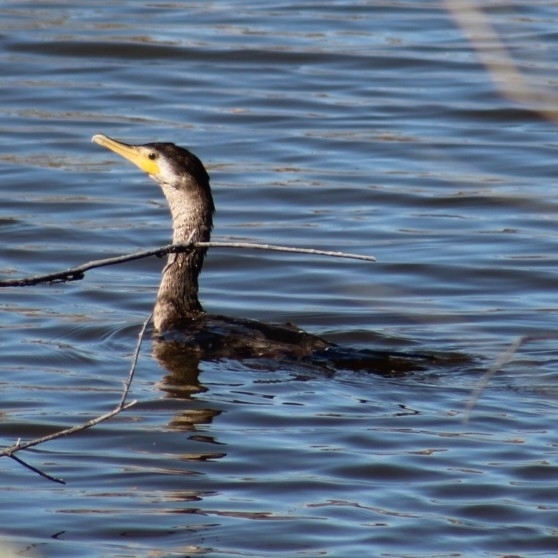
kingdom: Animalia
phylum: Chordata
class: Aves
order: Suliformes
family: Phalacrocoracidae
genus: Phalacrocorax
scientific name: Phalacrocorax auritus
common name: Double-crested cormorant
